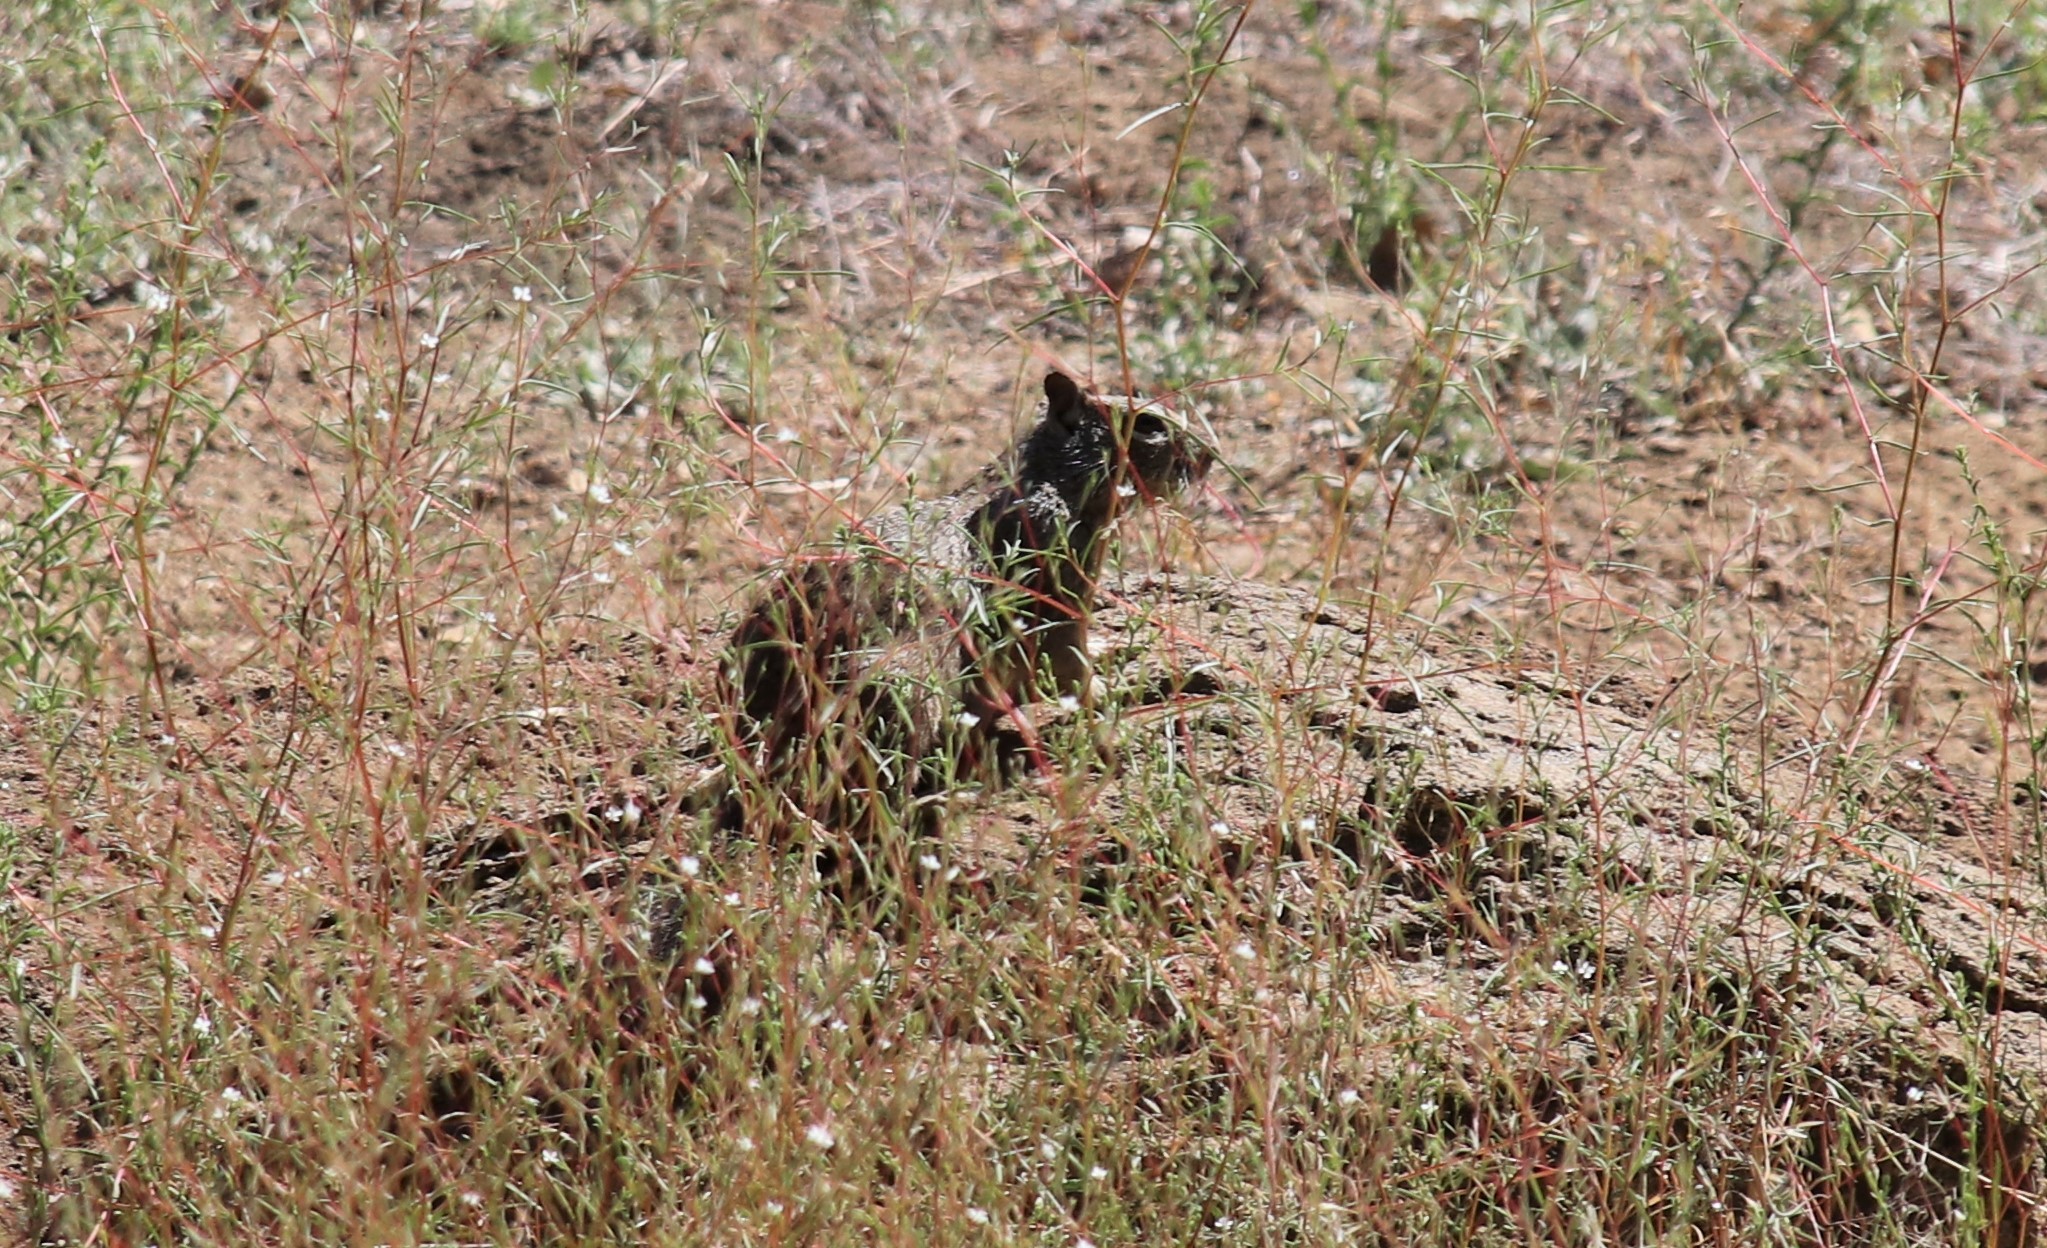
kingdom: Animalia
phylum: Chordata
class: Mammalia
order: Rodentia
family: Sciuridae
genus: Otospermophilus
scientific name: Otospermophilus beecheyi
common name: California ground squirrel
